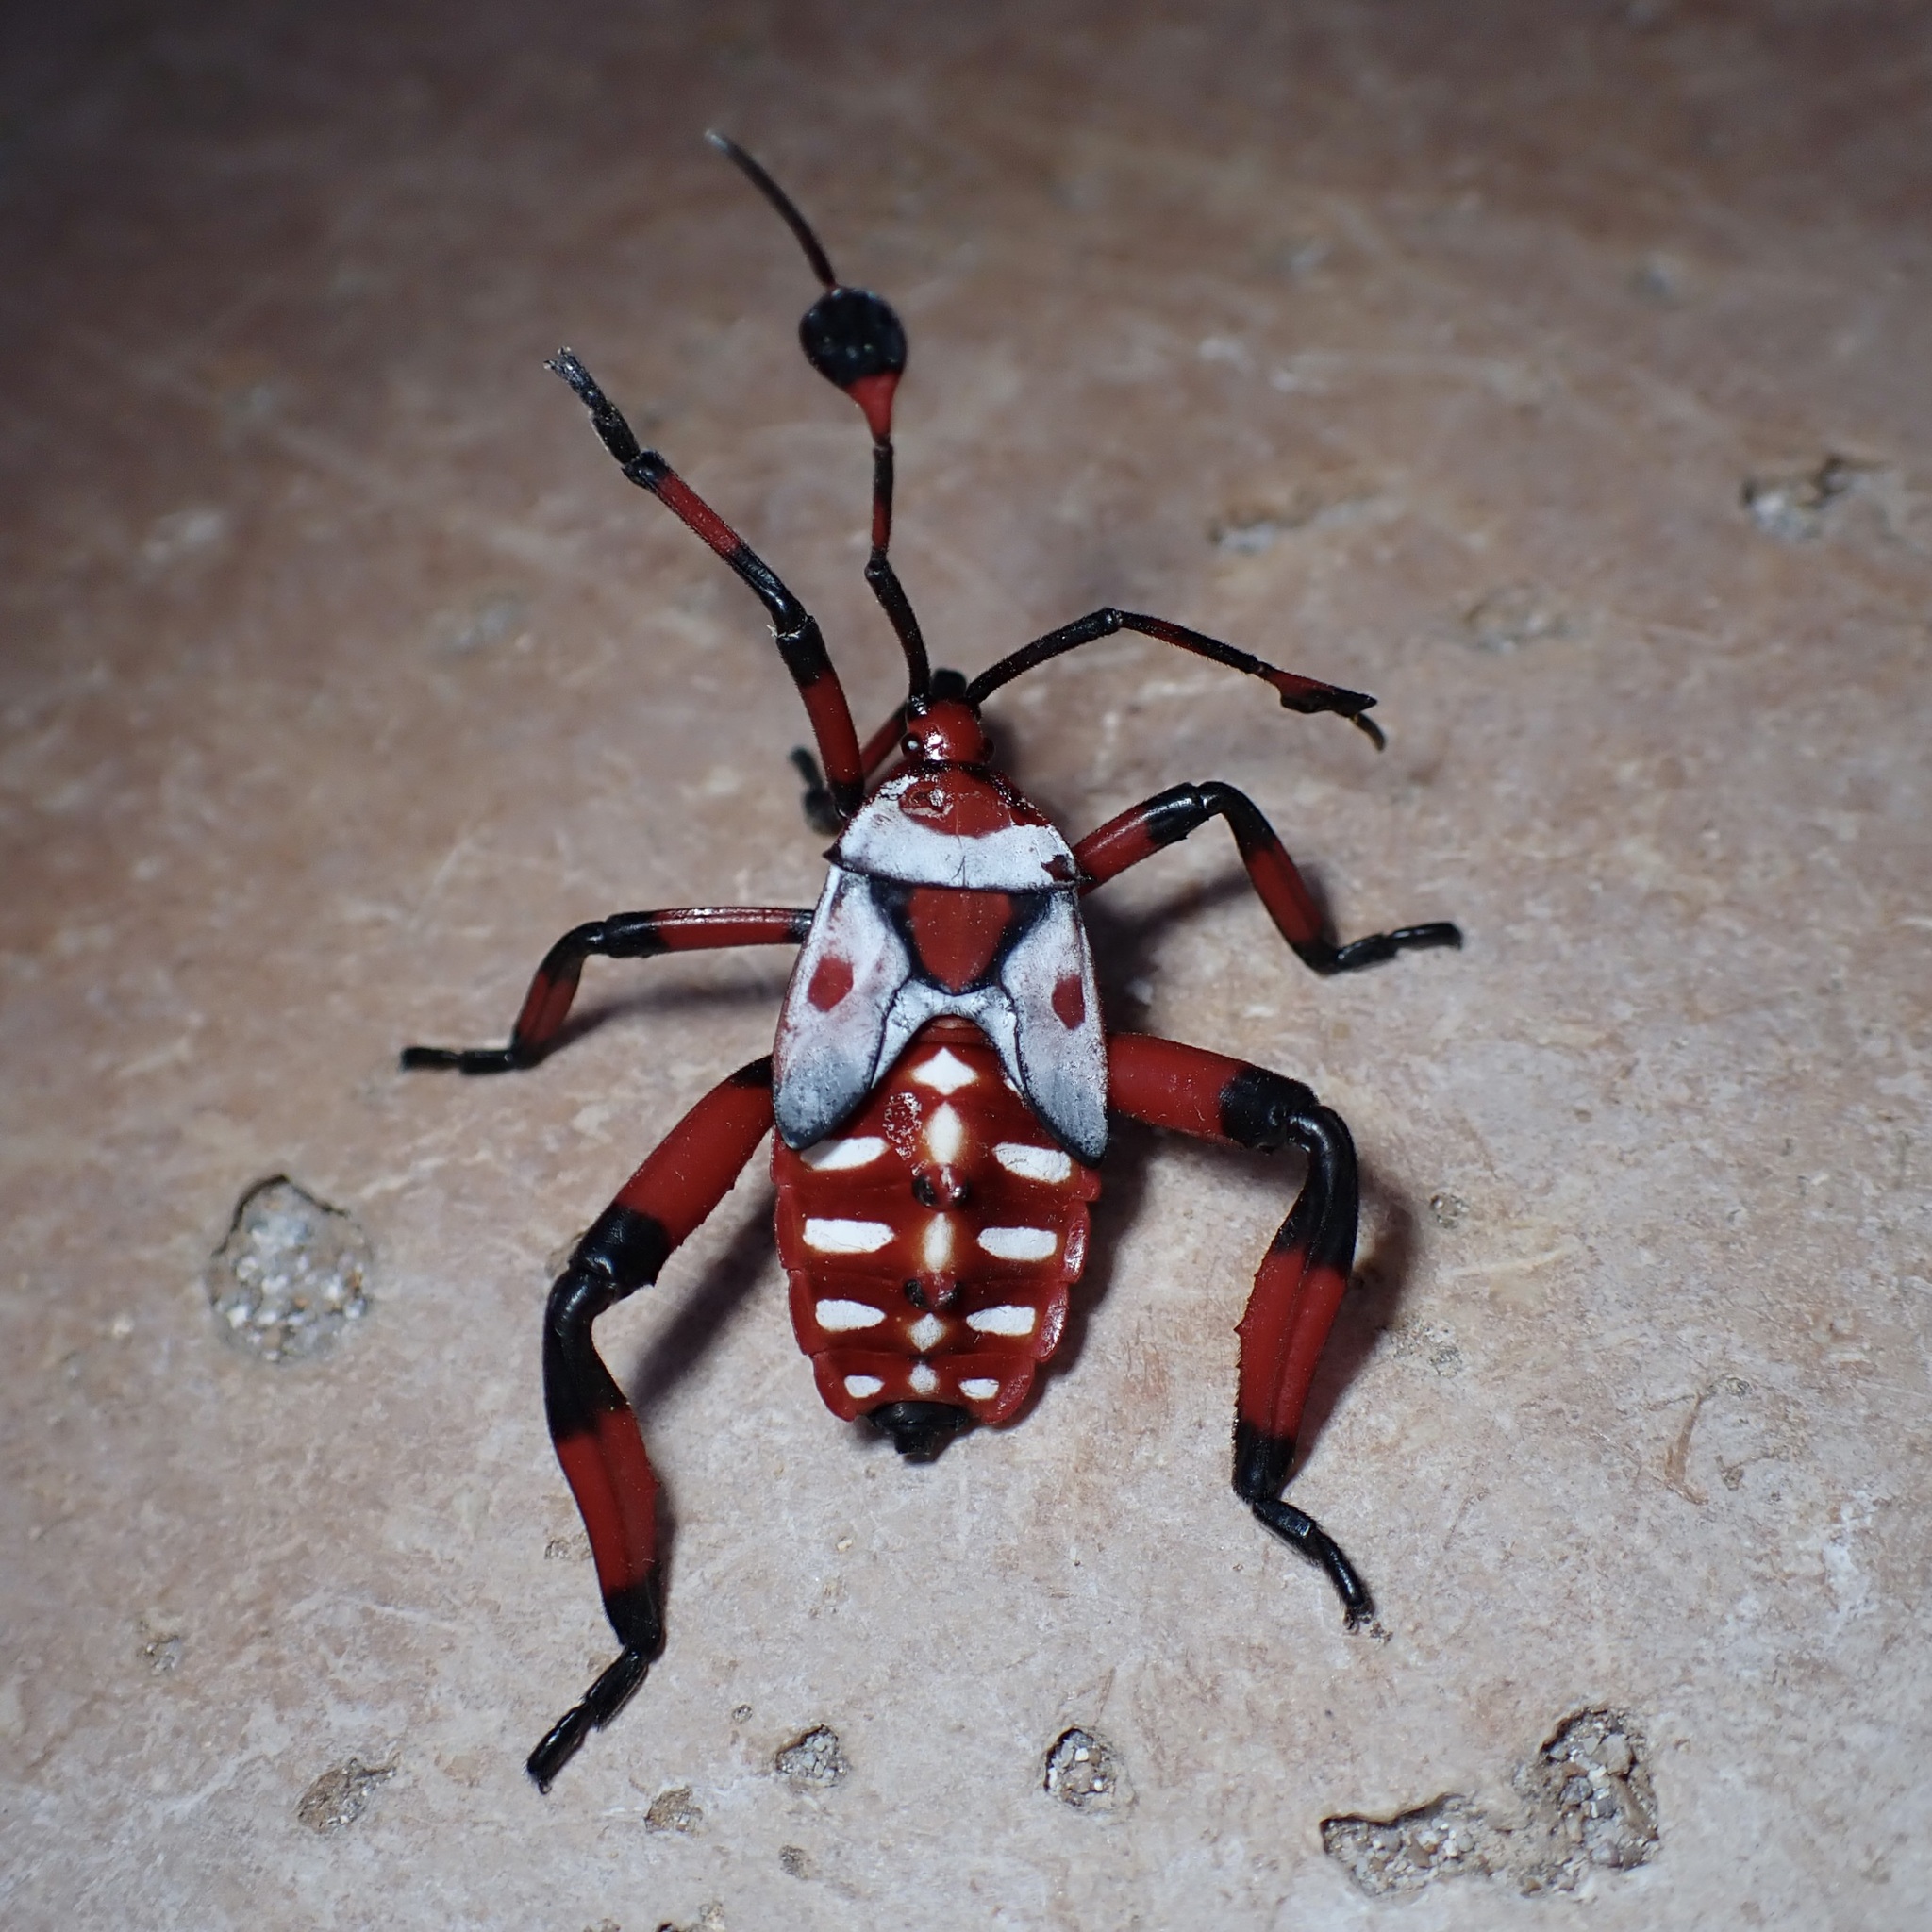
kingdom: Animalia
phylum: Arthropoda
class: Insecta
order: Hemiptera
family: Coreidae
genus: Thasus
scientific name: Thasus neocalifornicus
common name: Giant mesquite bug
